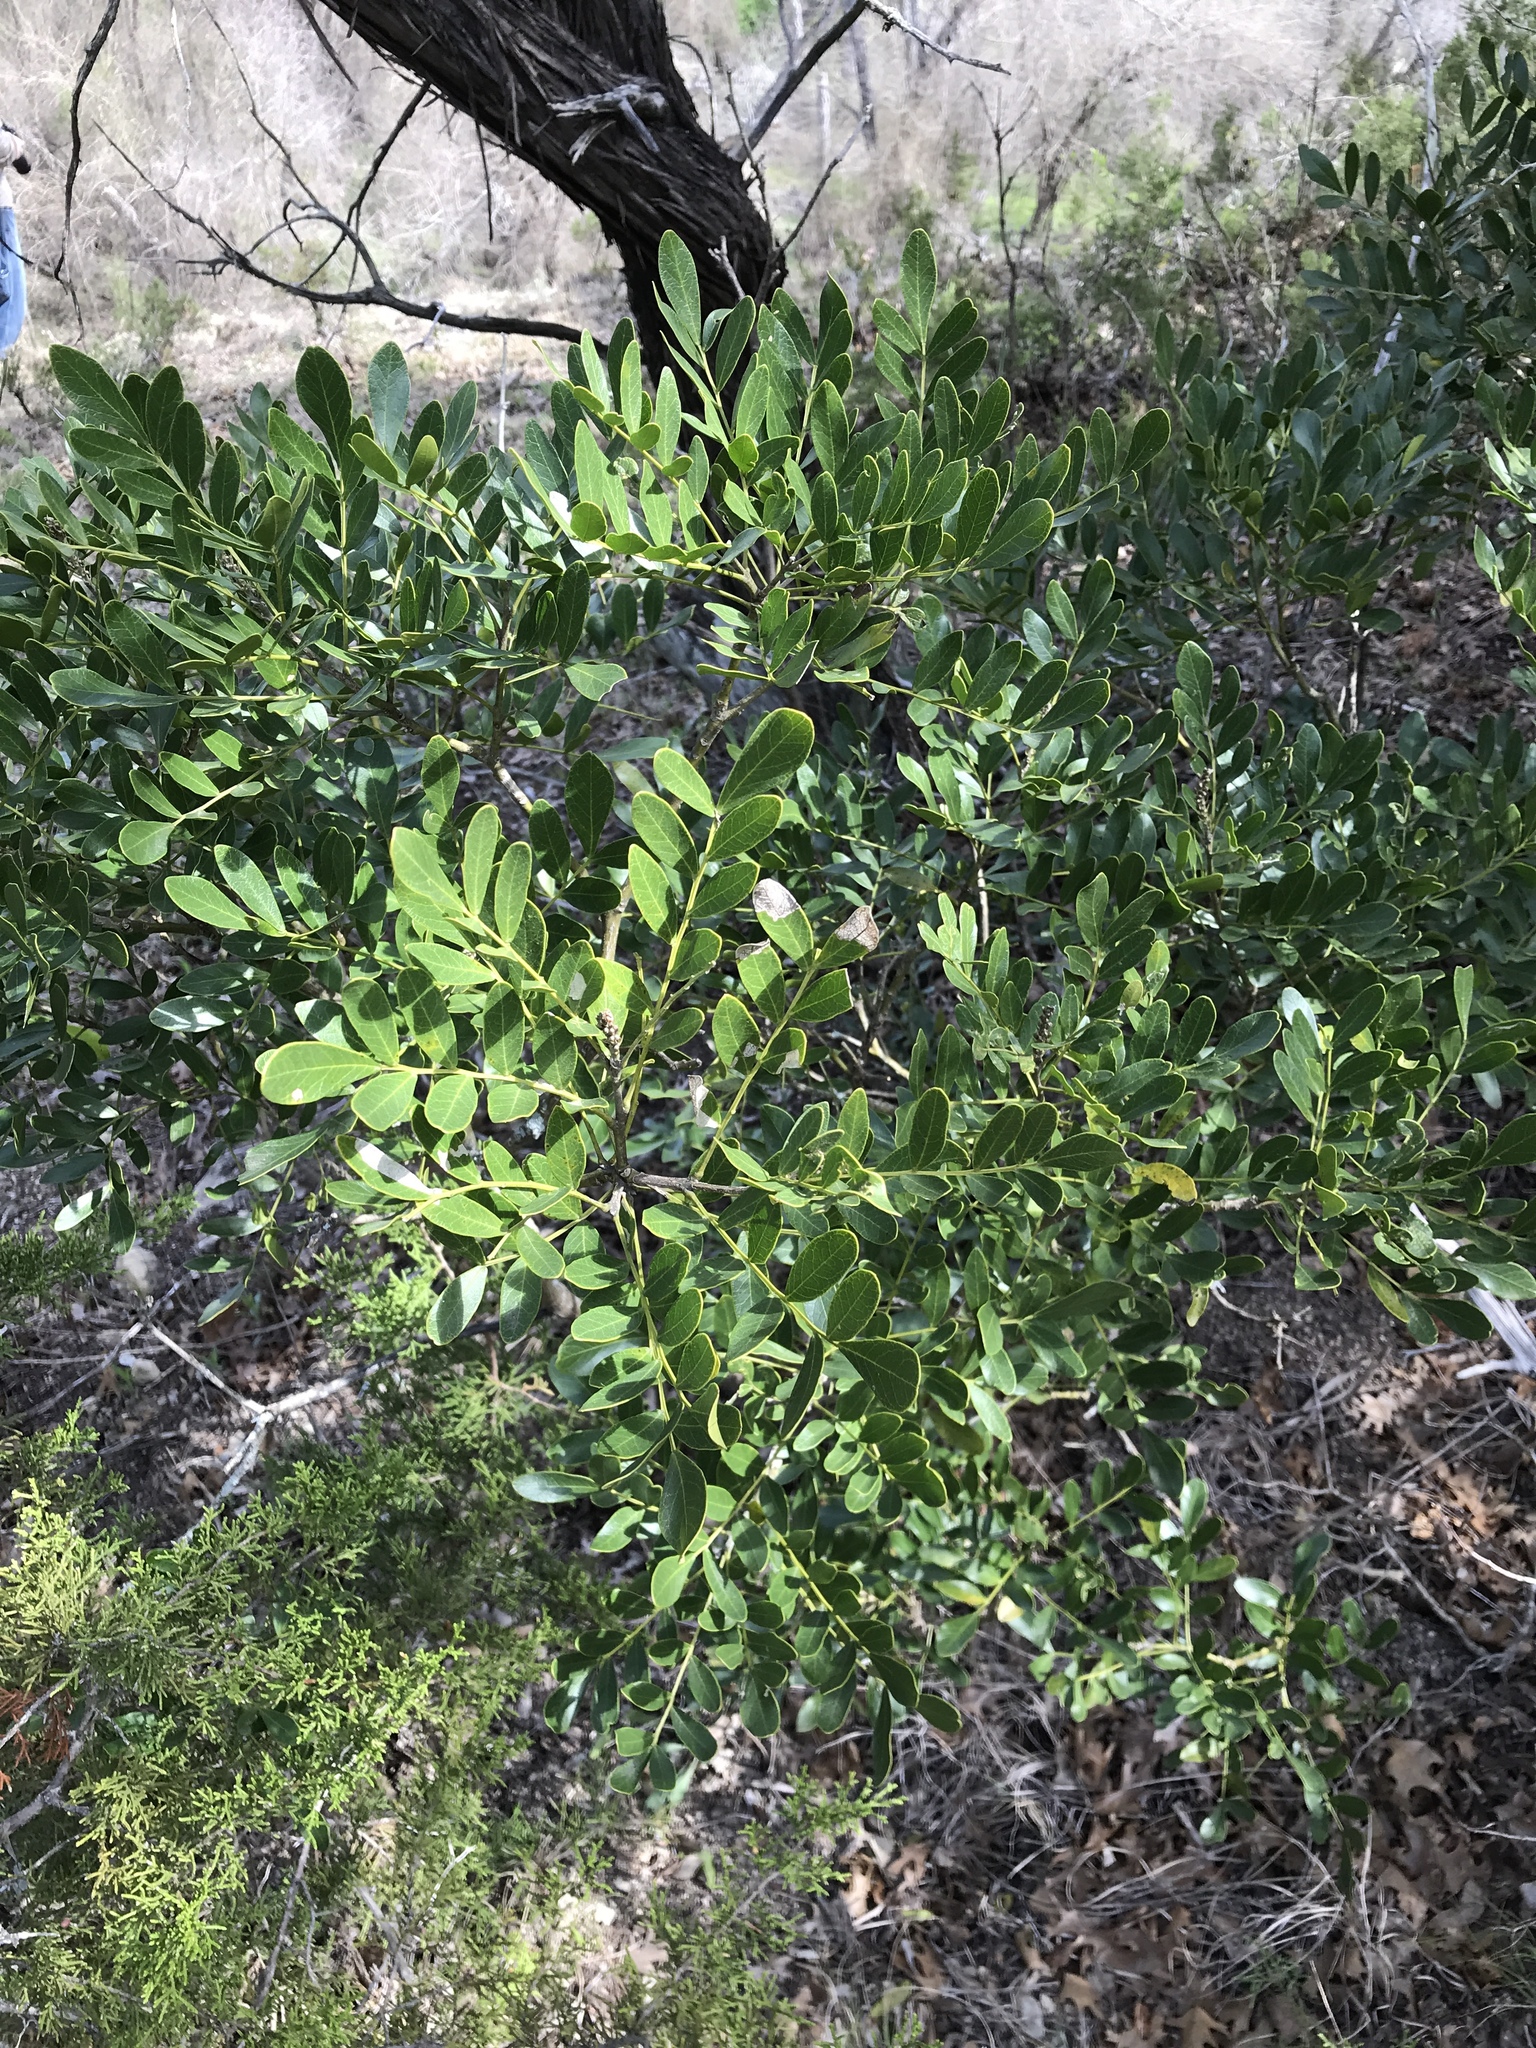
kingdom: Plantae
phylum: Tracheophyta
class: Magnoliopsida
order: Fabales
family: Fabaceae
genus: Dermatophyllum
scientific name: Dermatophyllum secundiflorum
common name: Texas-mountain-laurel
